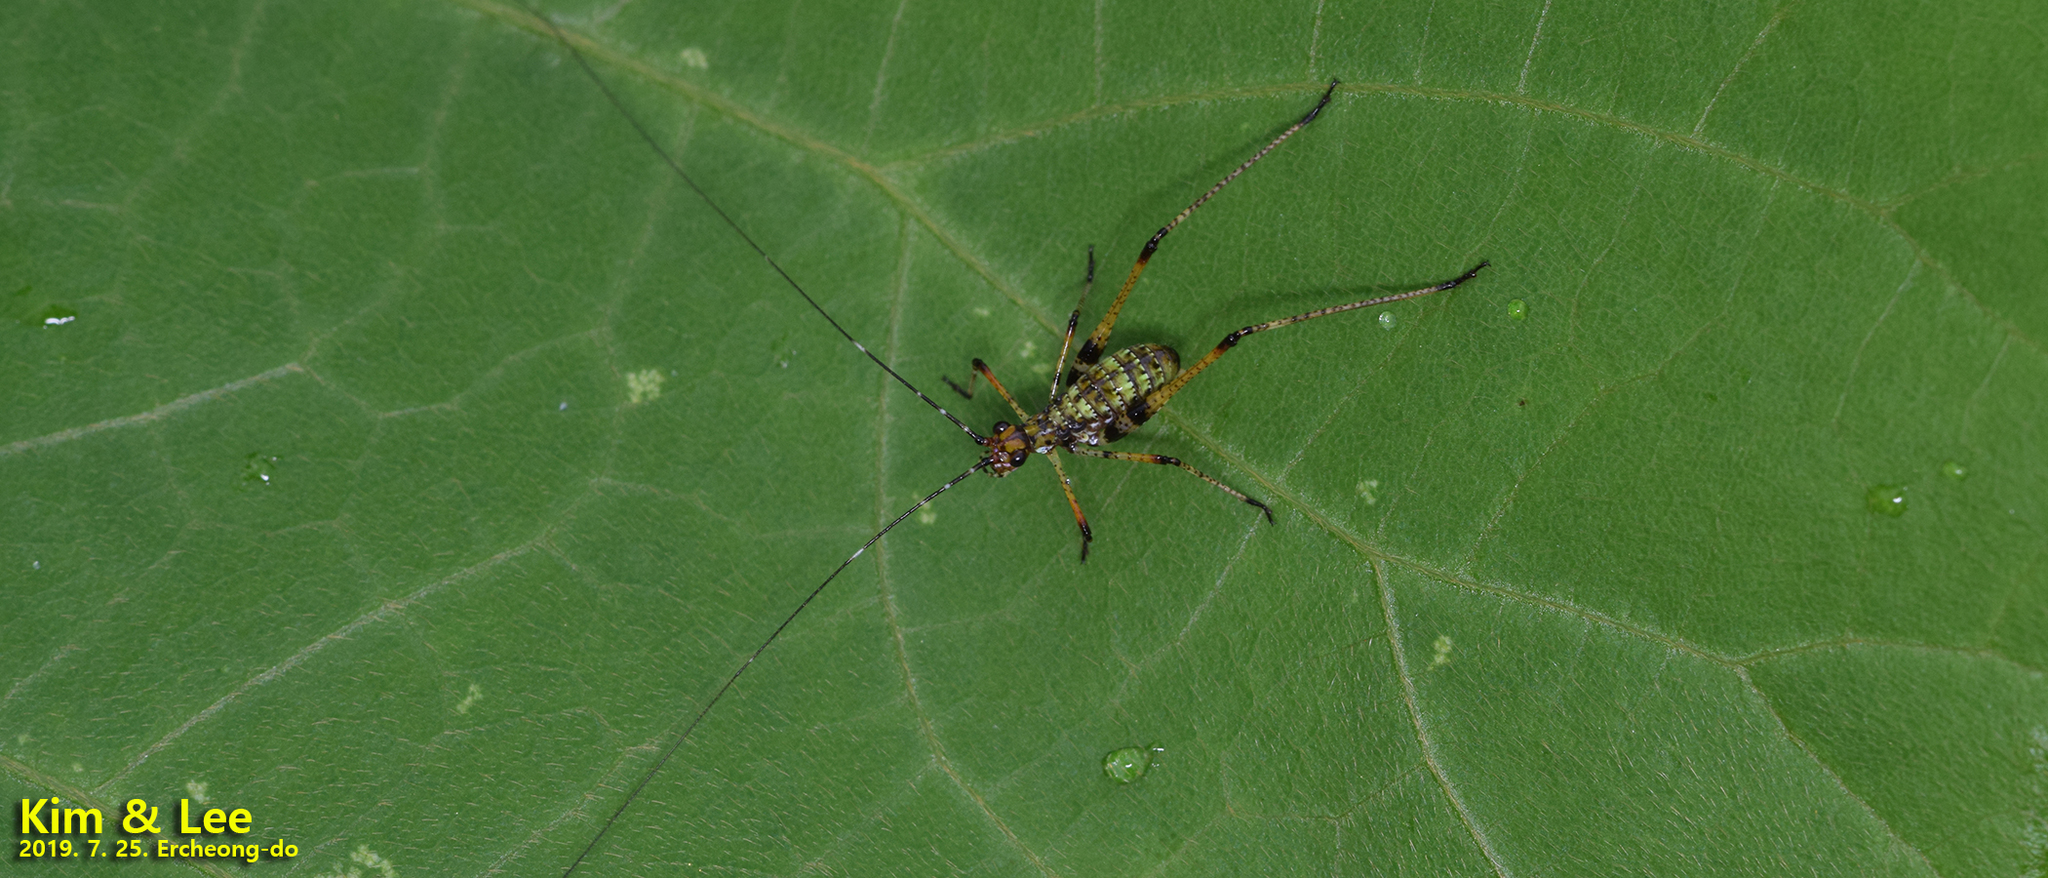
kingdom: Animalia
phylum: Arthropoda
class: Insecta
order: Orthoptera
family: Tettigoniidae
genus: Phaneroptera
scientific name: Phaneroptera nigroantennata
